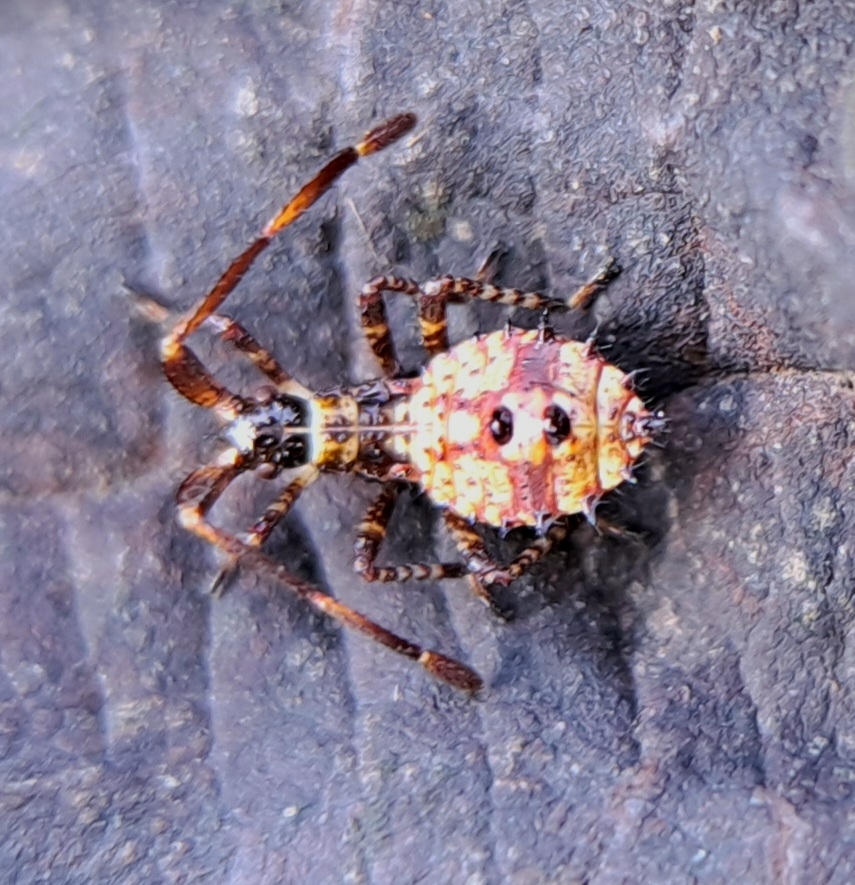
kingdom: Animalia
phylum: Arthropoda
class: Insecta
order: Hemiptera
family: Coreidae
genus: Coreus
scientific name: Coreus marginatus
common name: Dock bug
